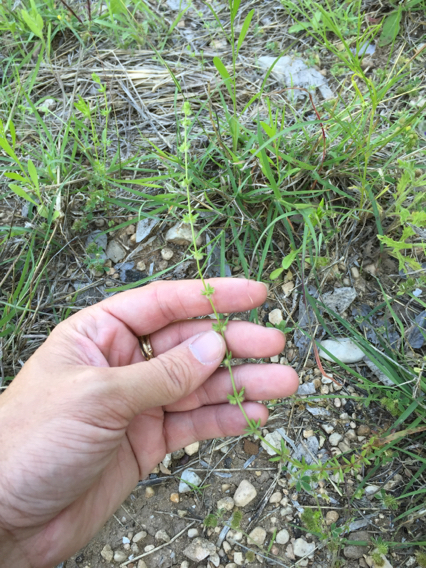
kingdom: Plantae
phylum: Tracheophyta
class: Magnoliopsida
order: Gentianales
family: Rubiaceae
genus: Galium
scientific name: Galium virgatum
